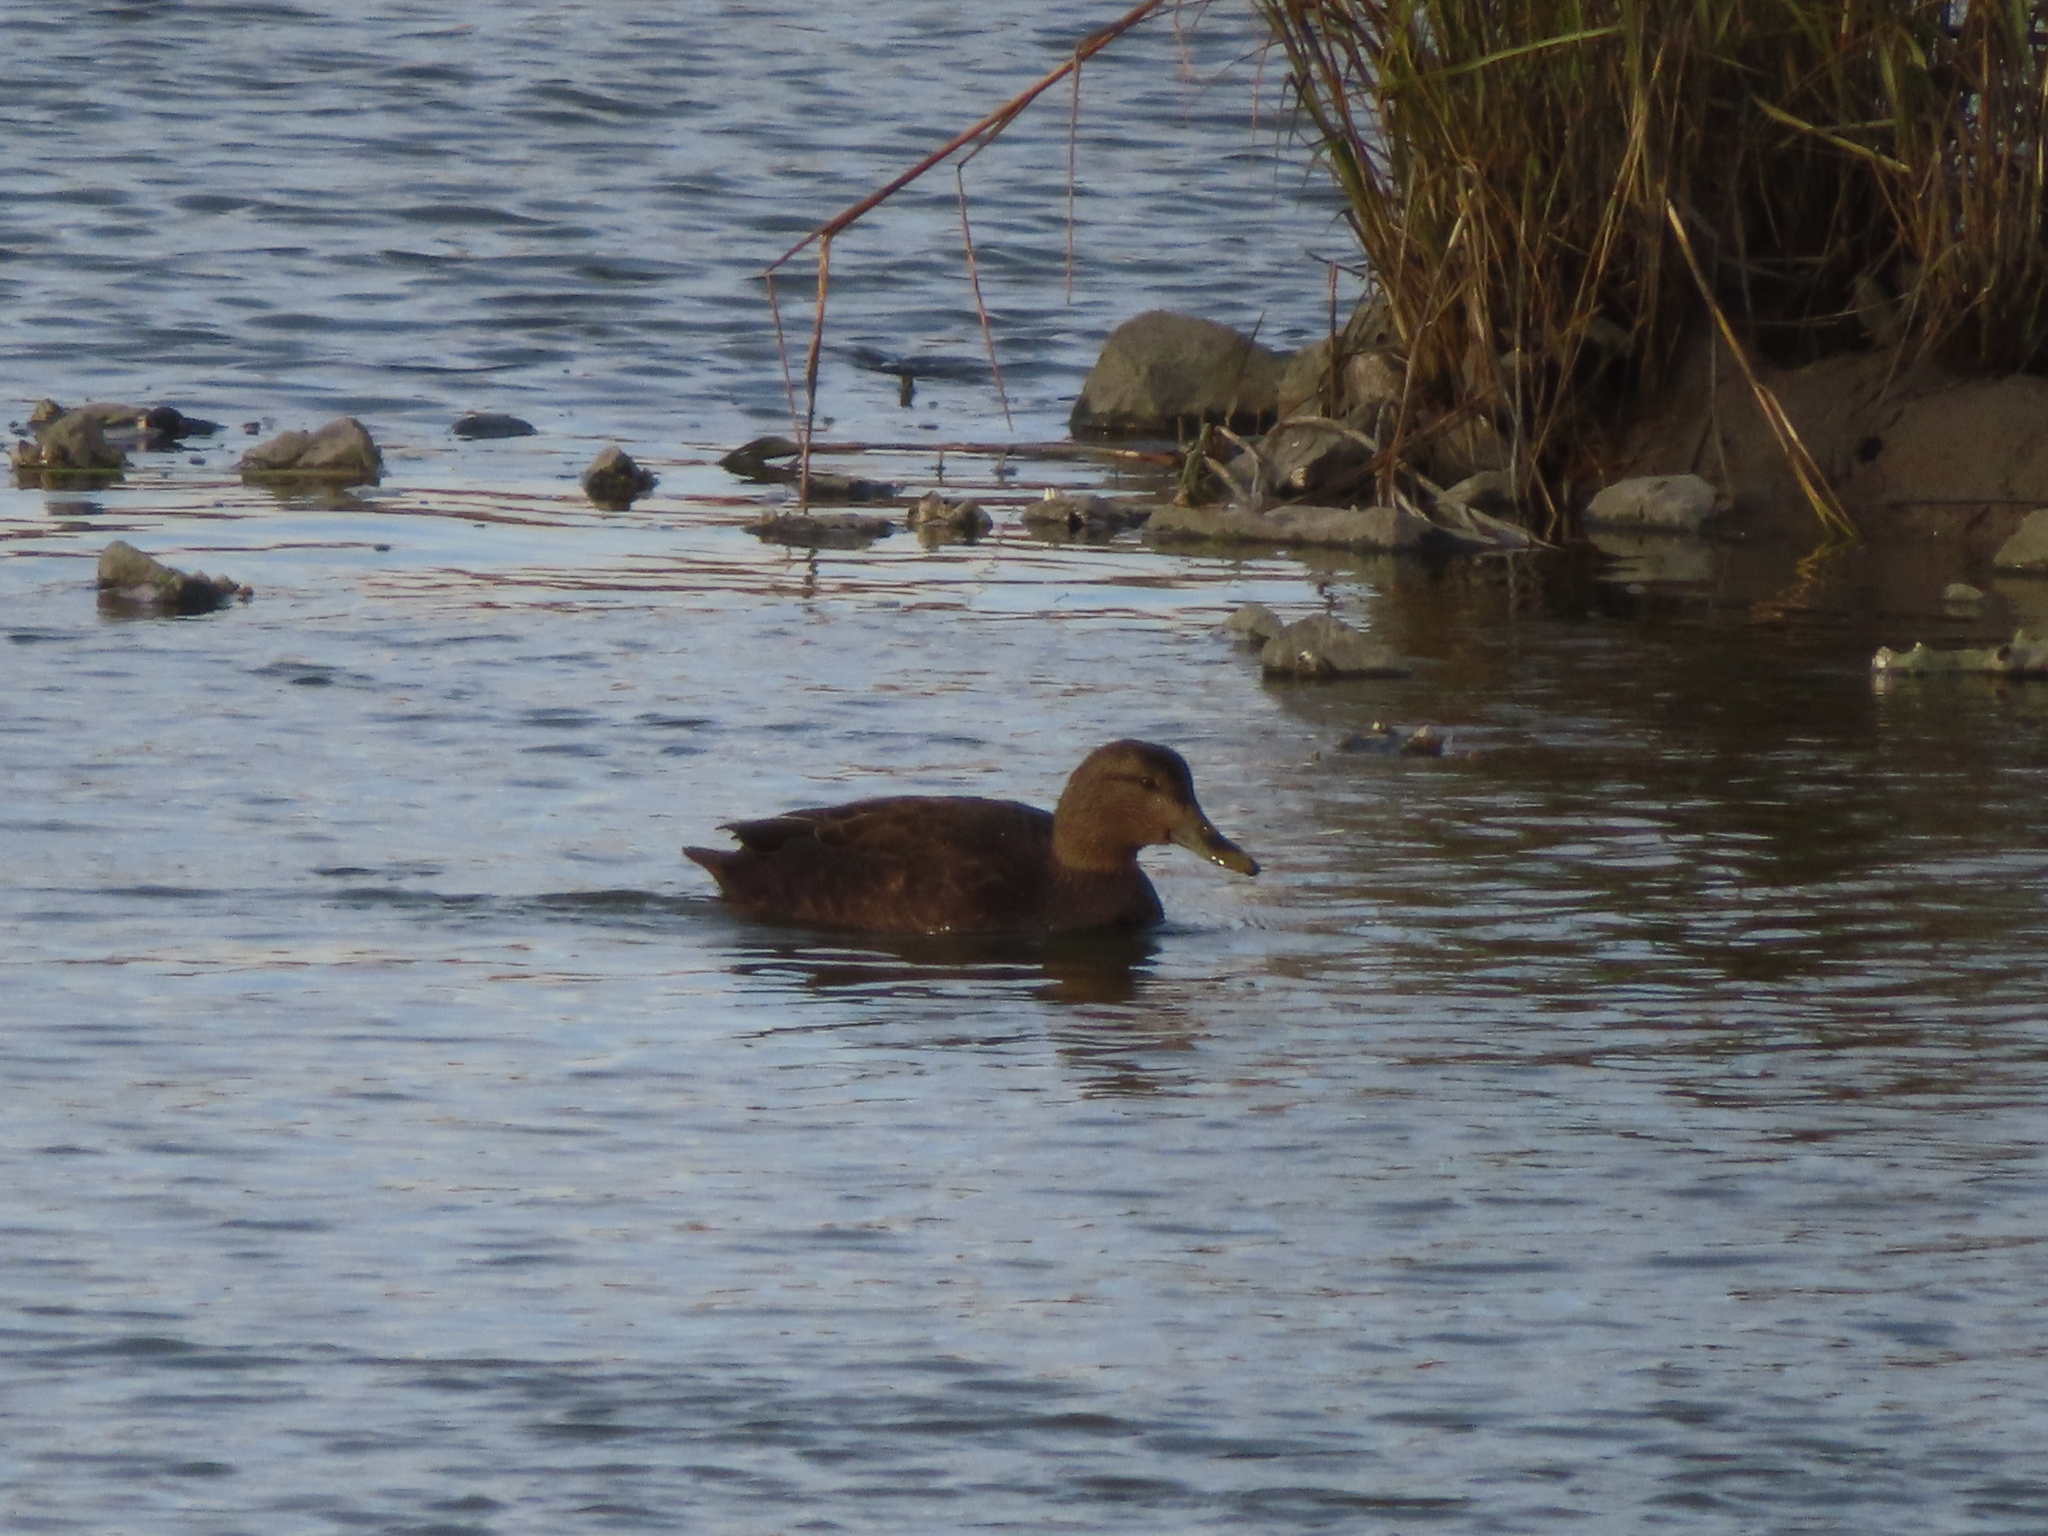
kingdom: Animalia
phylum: Chordata
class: Aves
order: Anseriformes
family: Anatidae
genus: Anas
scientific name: Anas rubripes
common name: American black duck
